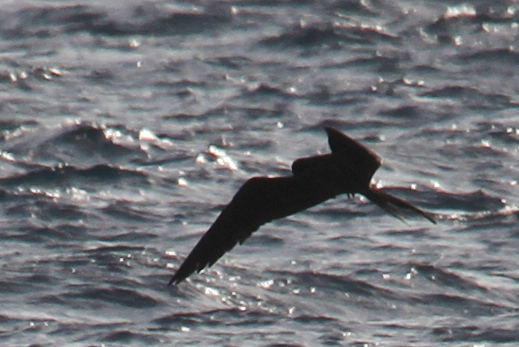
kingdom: Animalia
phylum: Chordata
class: Aves
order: Suliformes
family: Fregatidae
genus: Fregata
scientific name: Fregata magnificens
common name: Magnificent frigatebird
